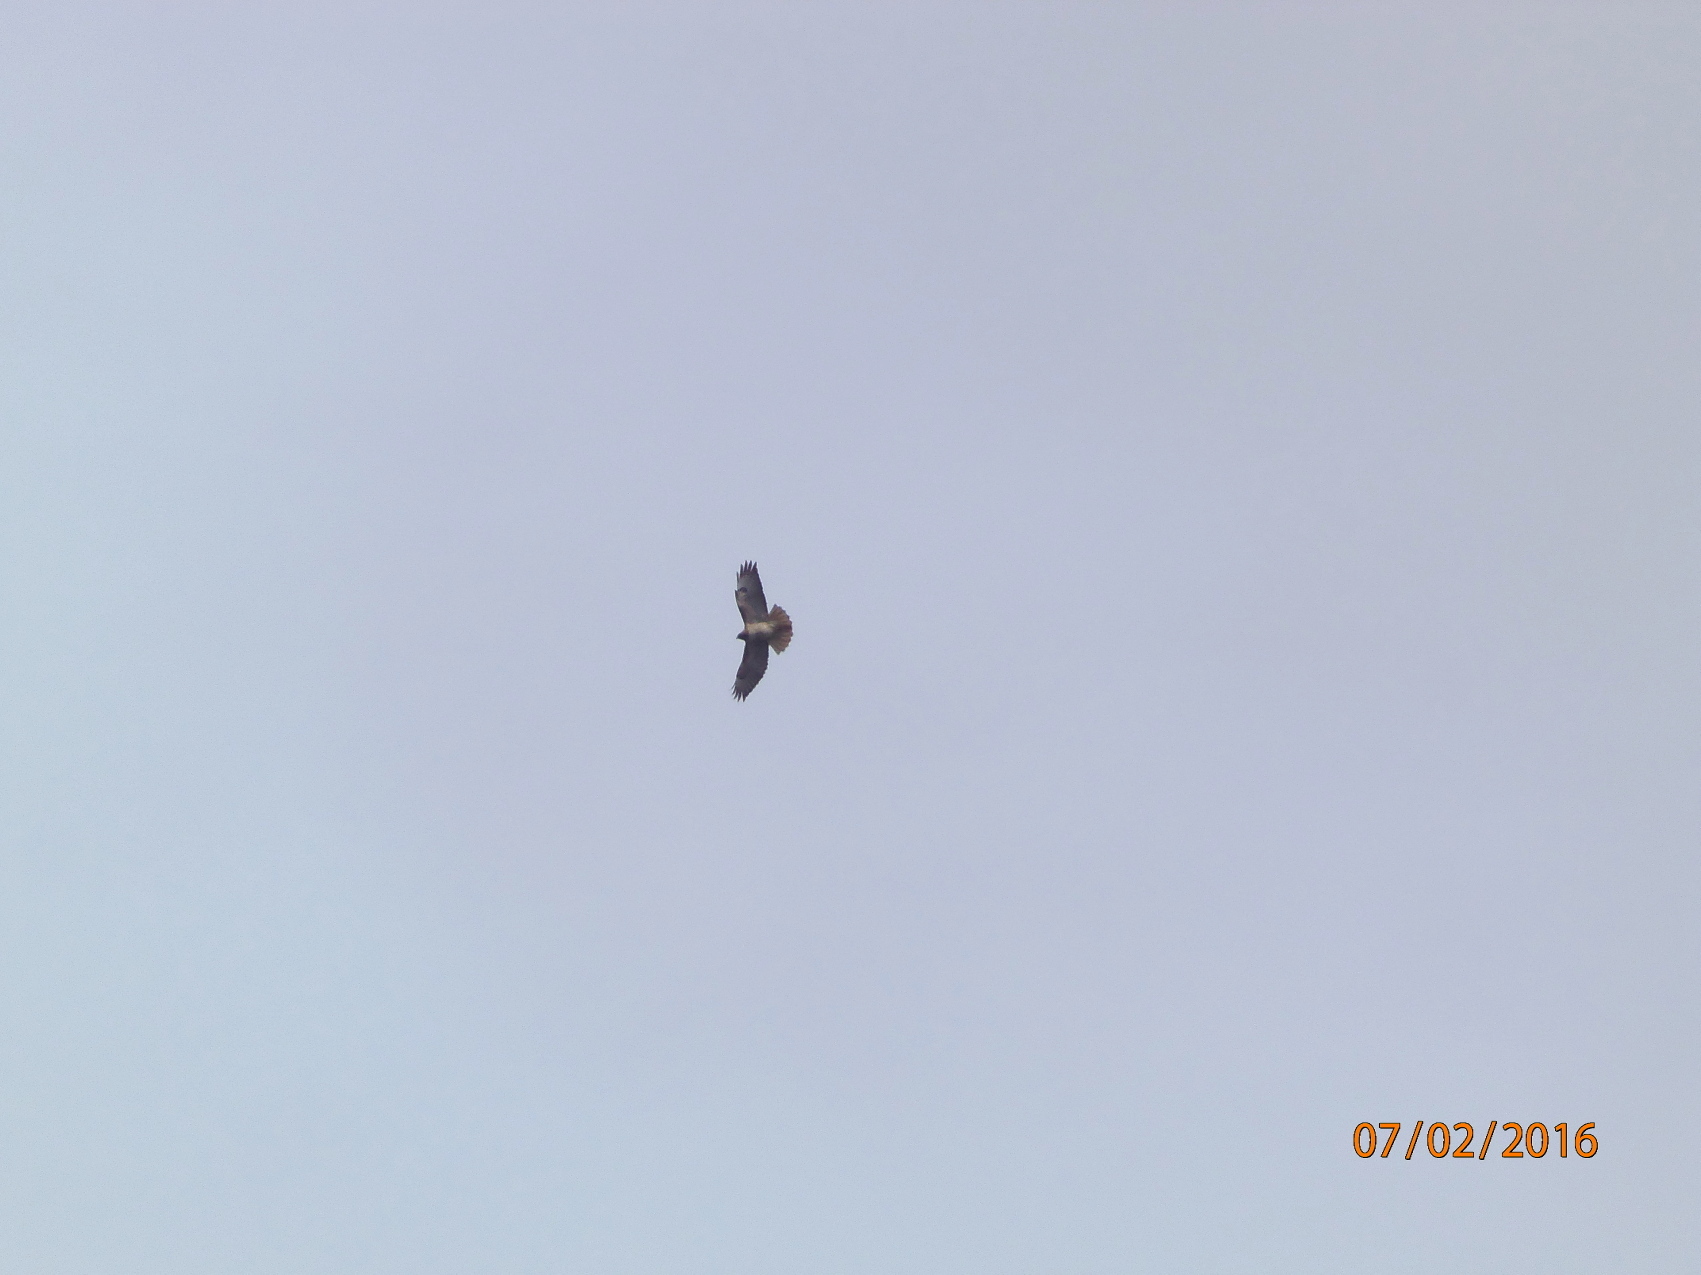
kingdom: Animalia
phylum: Chordata
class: Aves
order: Accipitriformes
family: Accipitridae
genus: Buteo
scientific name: Buteo jamaicensis
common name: Red-tailed hawk
